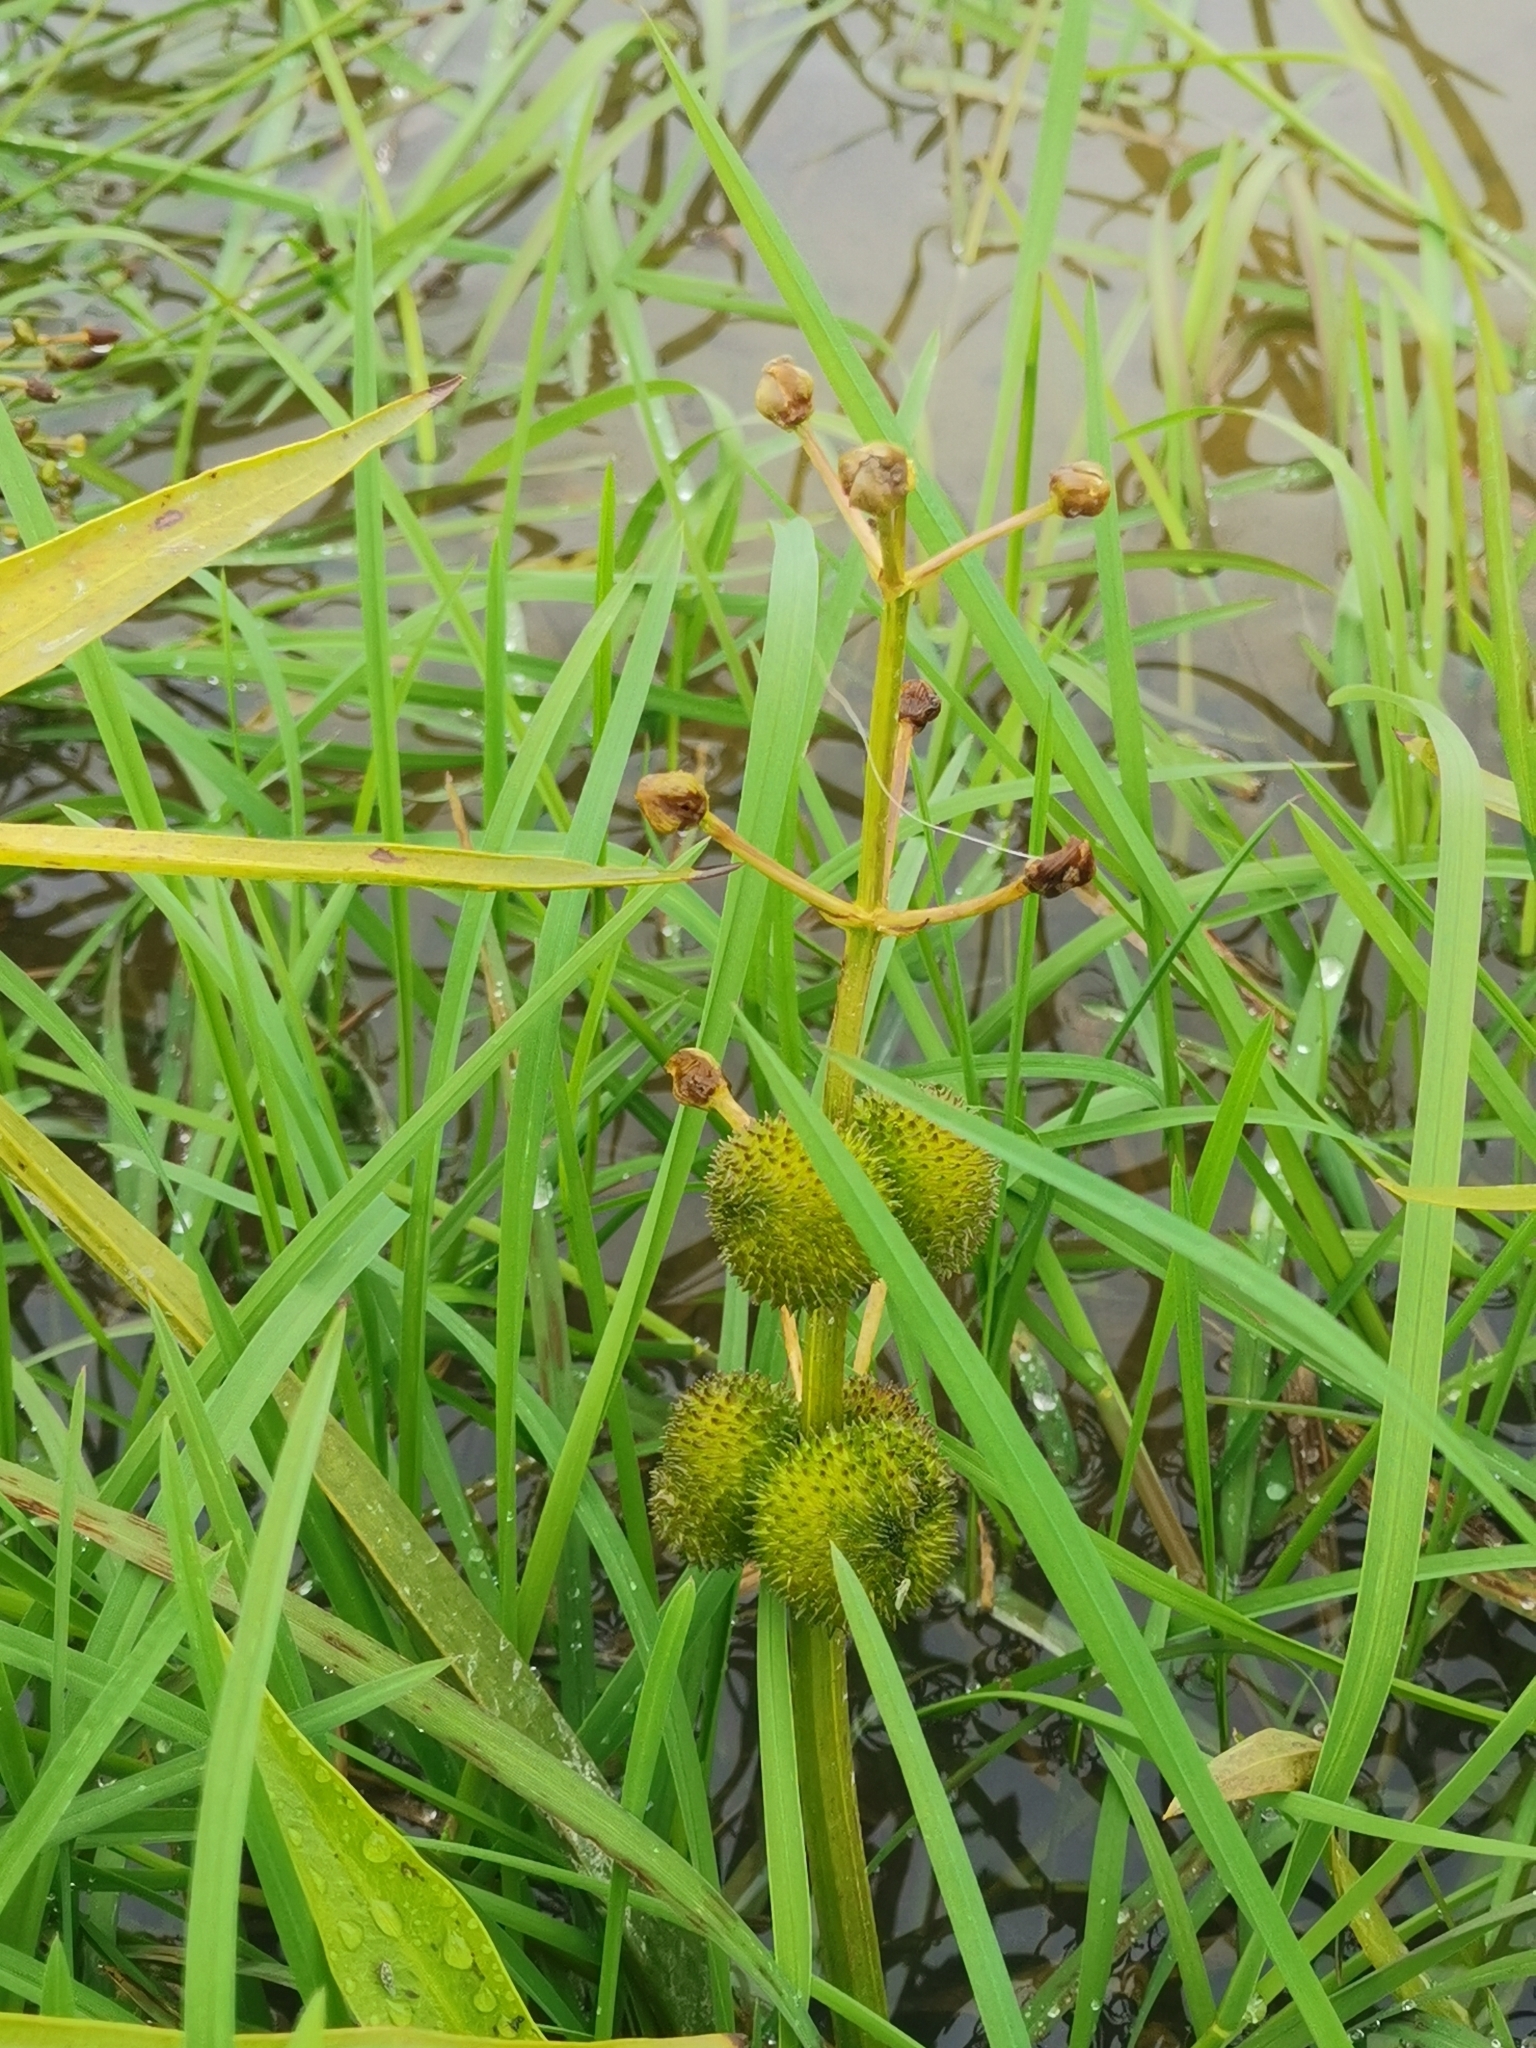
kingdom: Plantae
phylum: Tracheophyta
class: Liliopsida
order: Alismatales
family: Alismataceae
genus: Sagittaria
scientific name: Sagittaria sagittifolia
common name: Arrowhead
